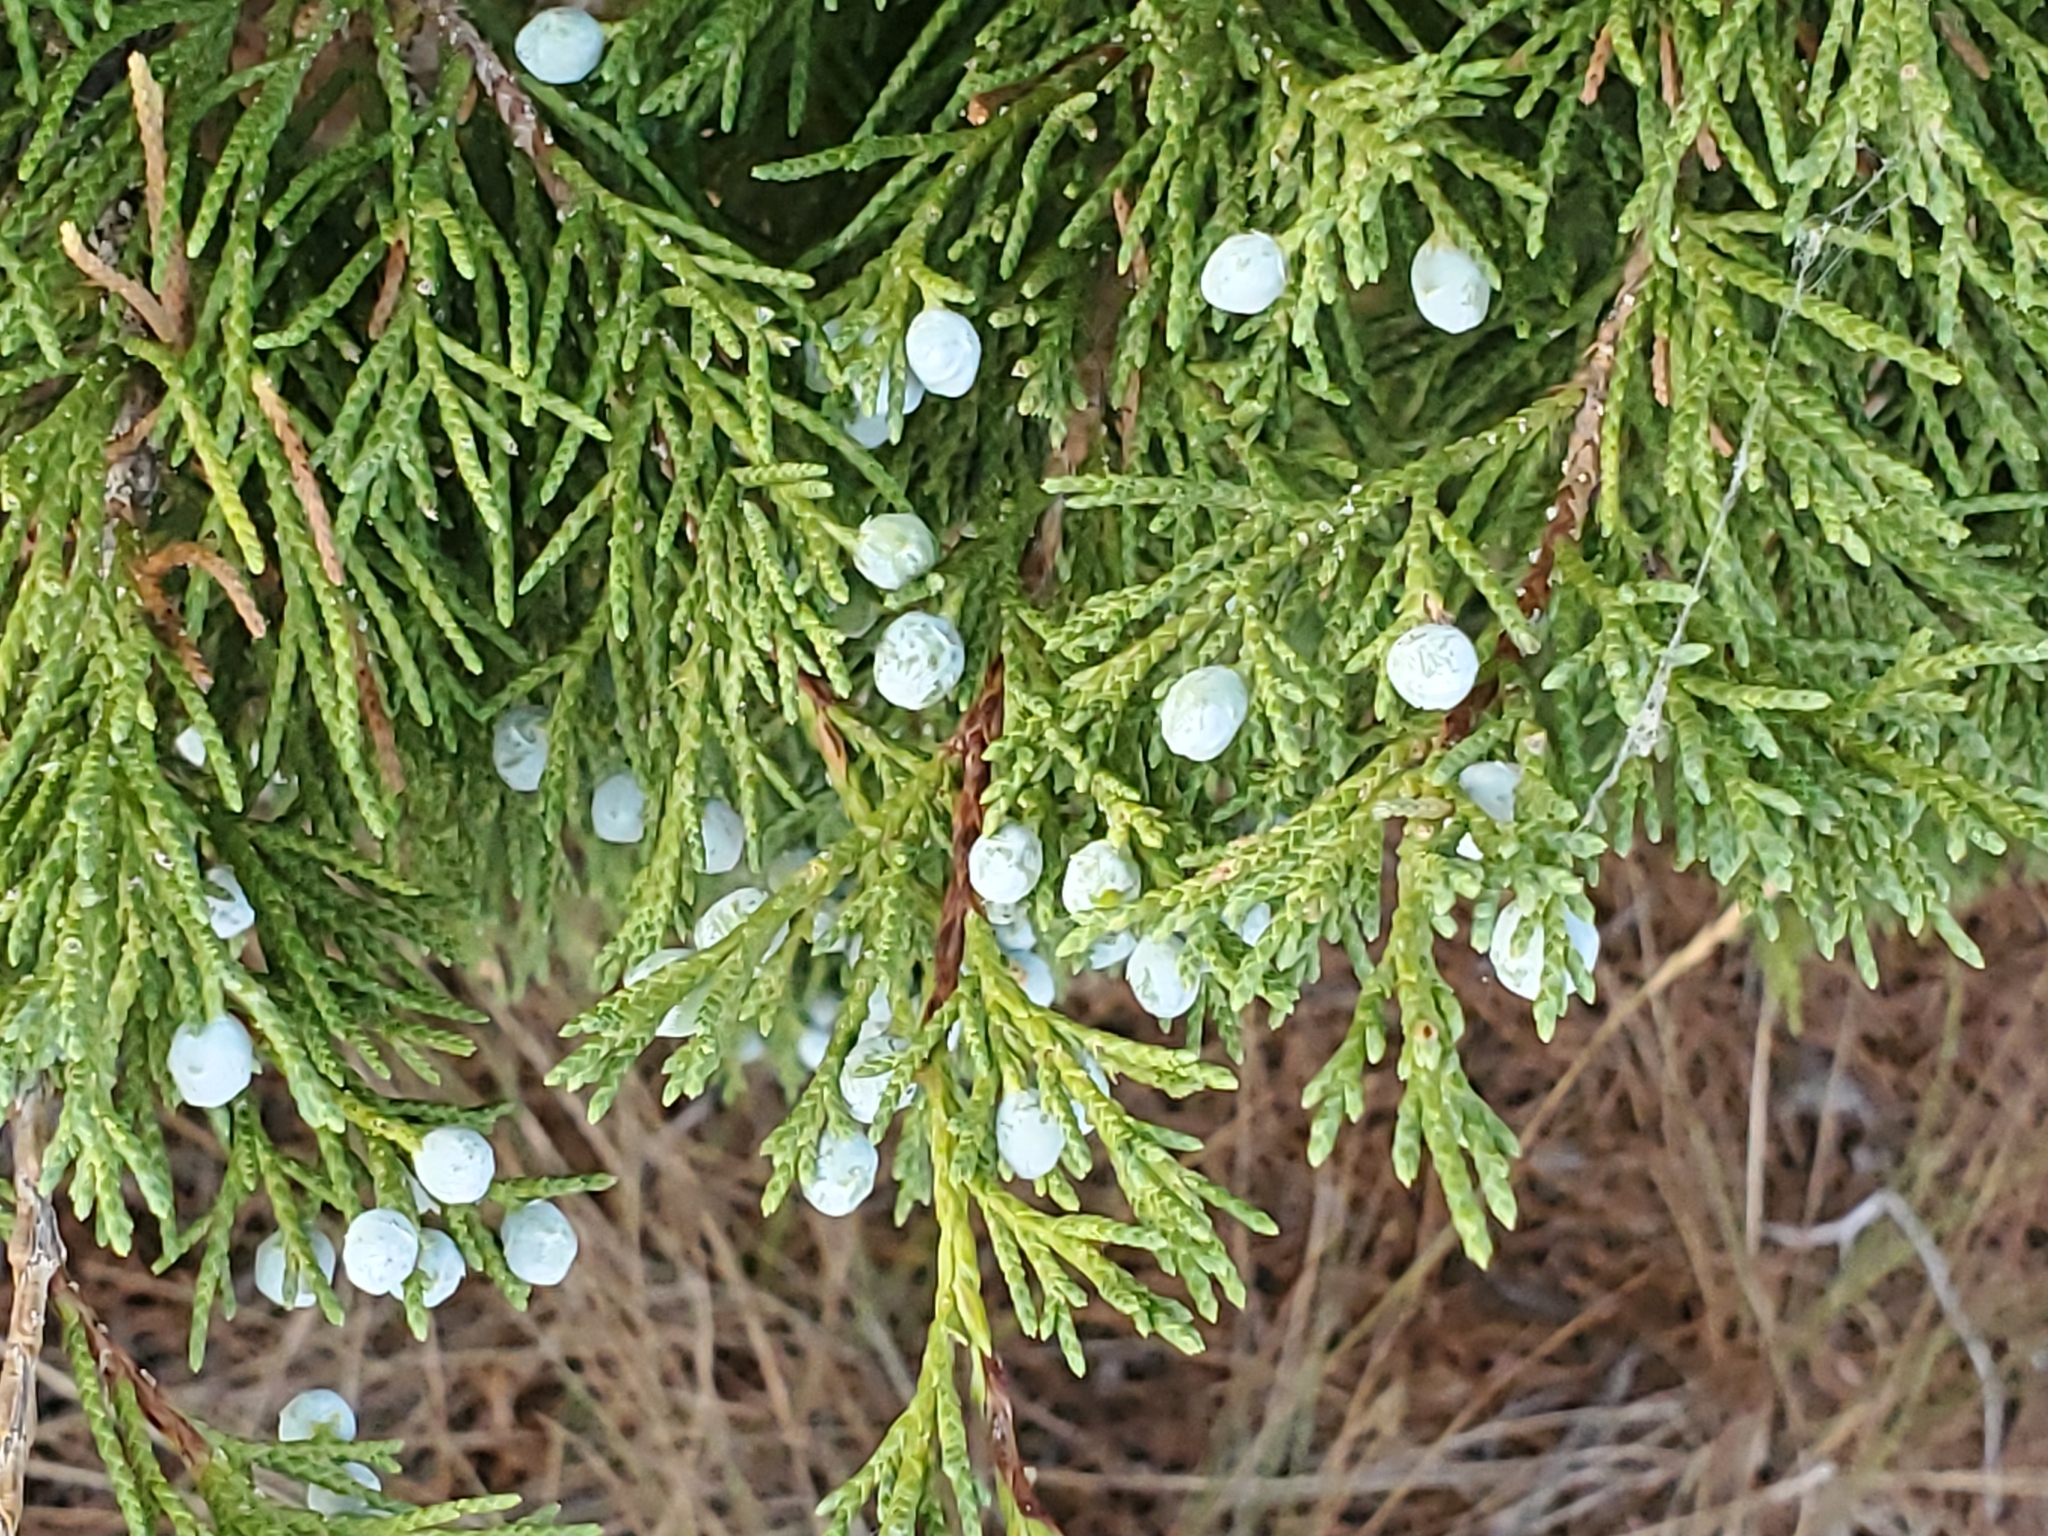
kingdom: Plantae
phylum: Tracheophyta
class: Pinopsida
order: Pinales
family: Cupressaceae
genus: Juniperus
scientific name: Juniperus scopulorum
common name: Rocky mountain juniper
